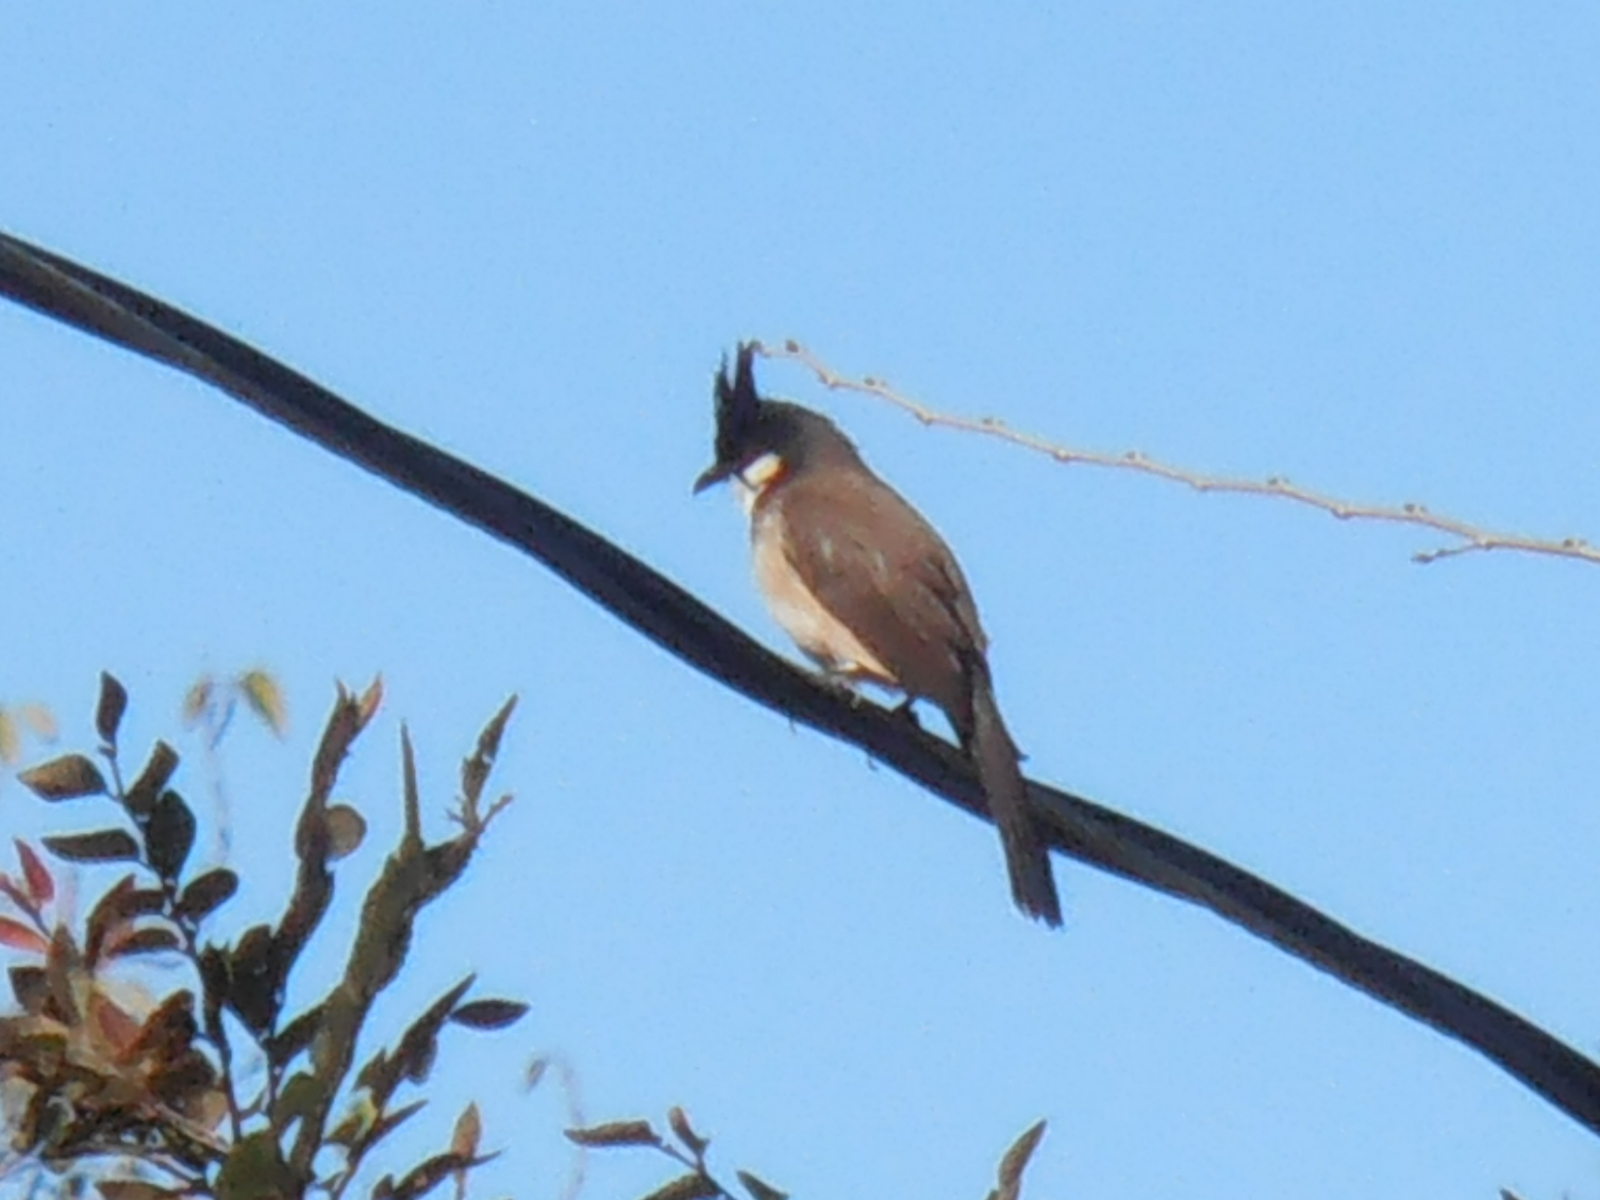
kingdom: Animalia
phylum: Chordata
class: Aves
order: Passeriformes
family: Pycnonotidae
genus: Pycnonotus
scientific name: Pycnonotus jocosus
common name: Red-whiskered bulbul
